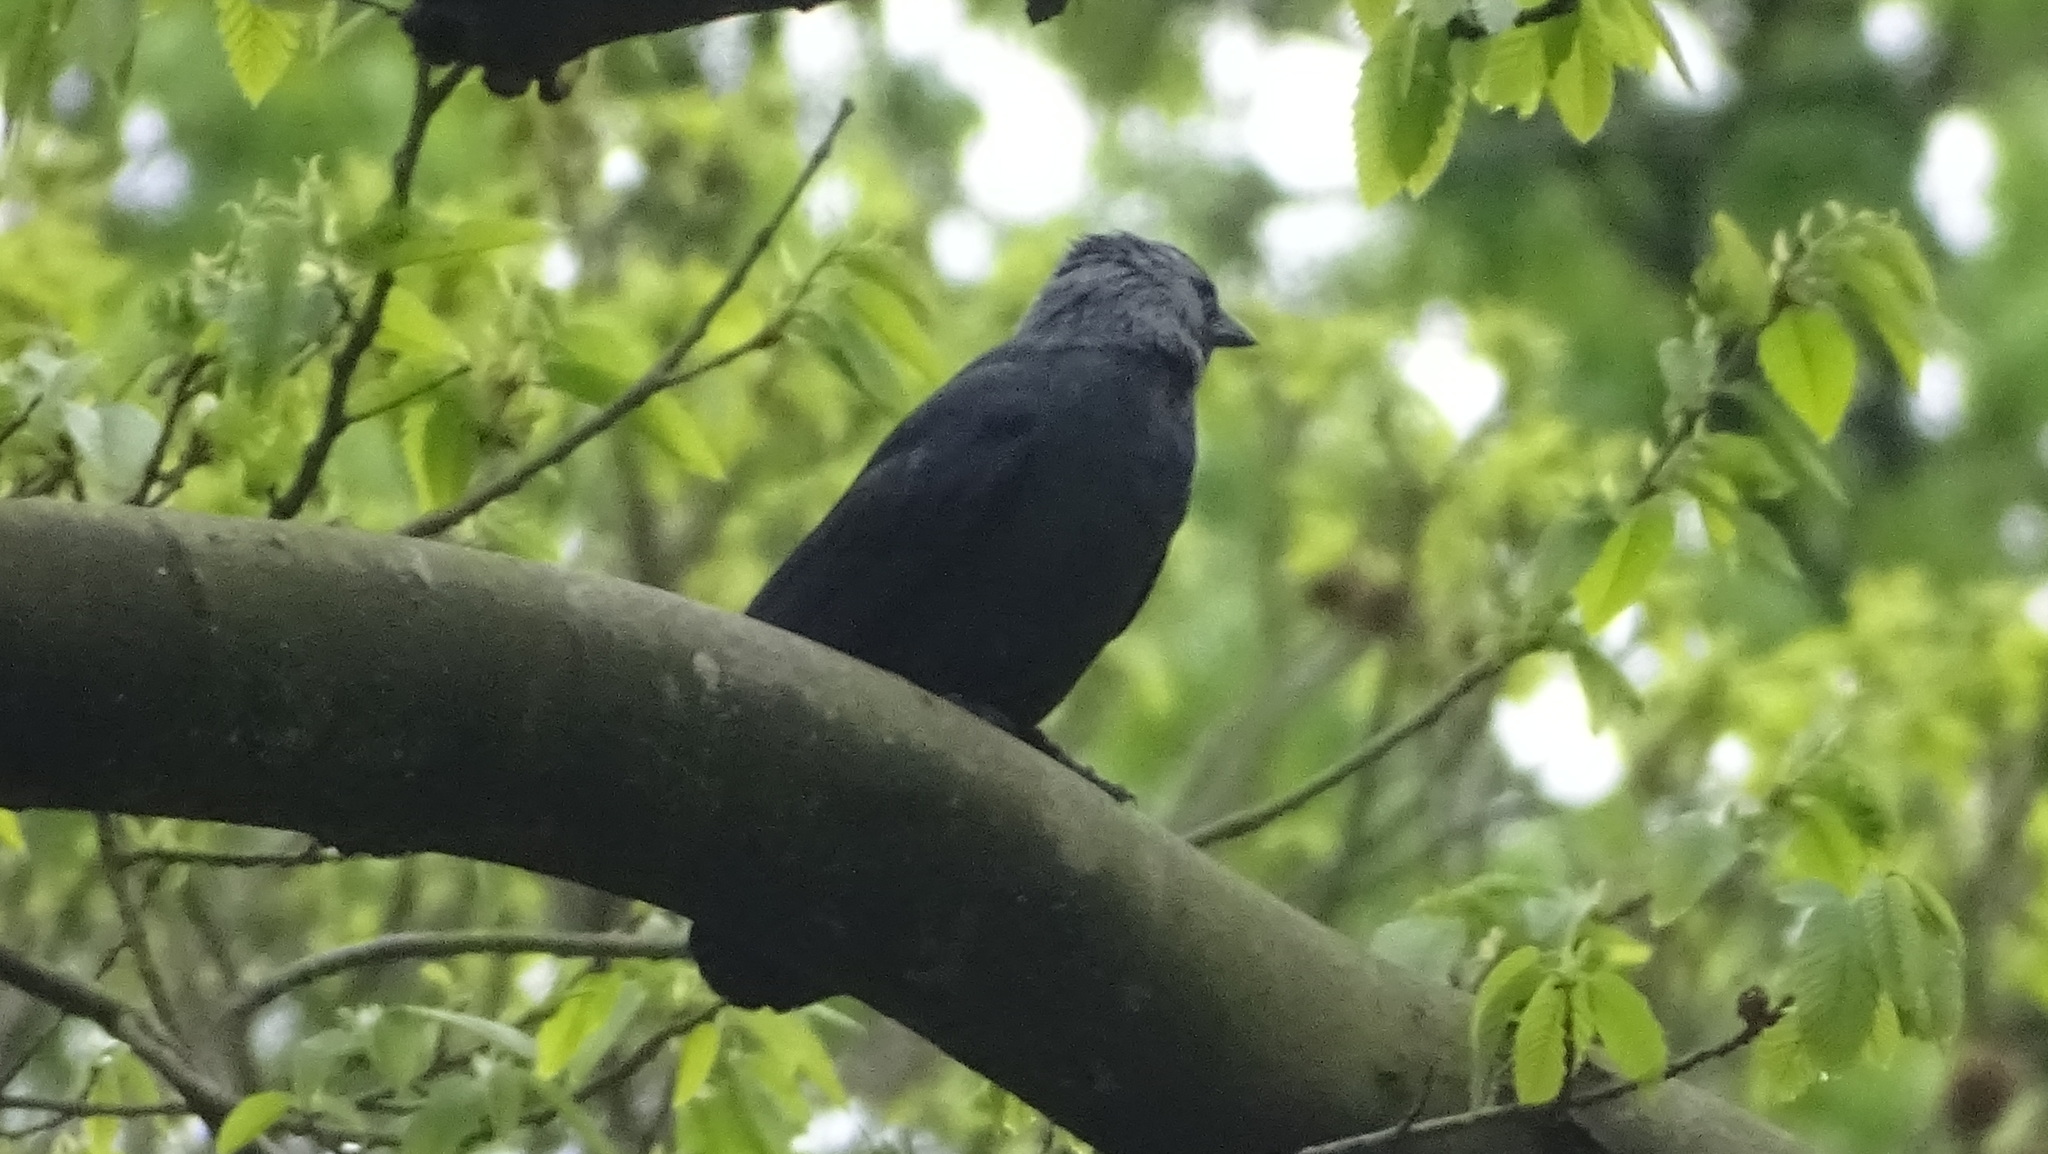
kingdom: Animalia
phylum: Chordata
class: Aves
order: Passeriformes
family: Corvidae
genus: Coloeus
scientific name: Coloeus monedula
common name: Western jackdaw
